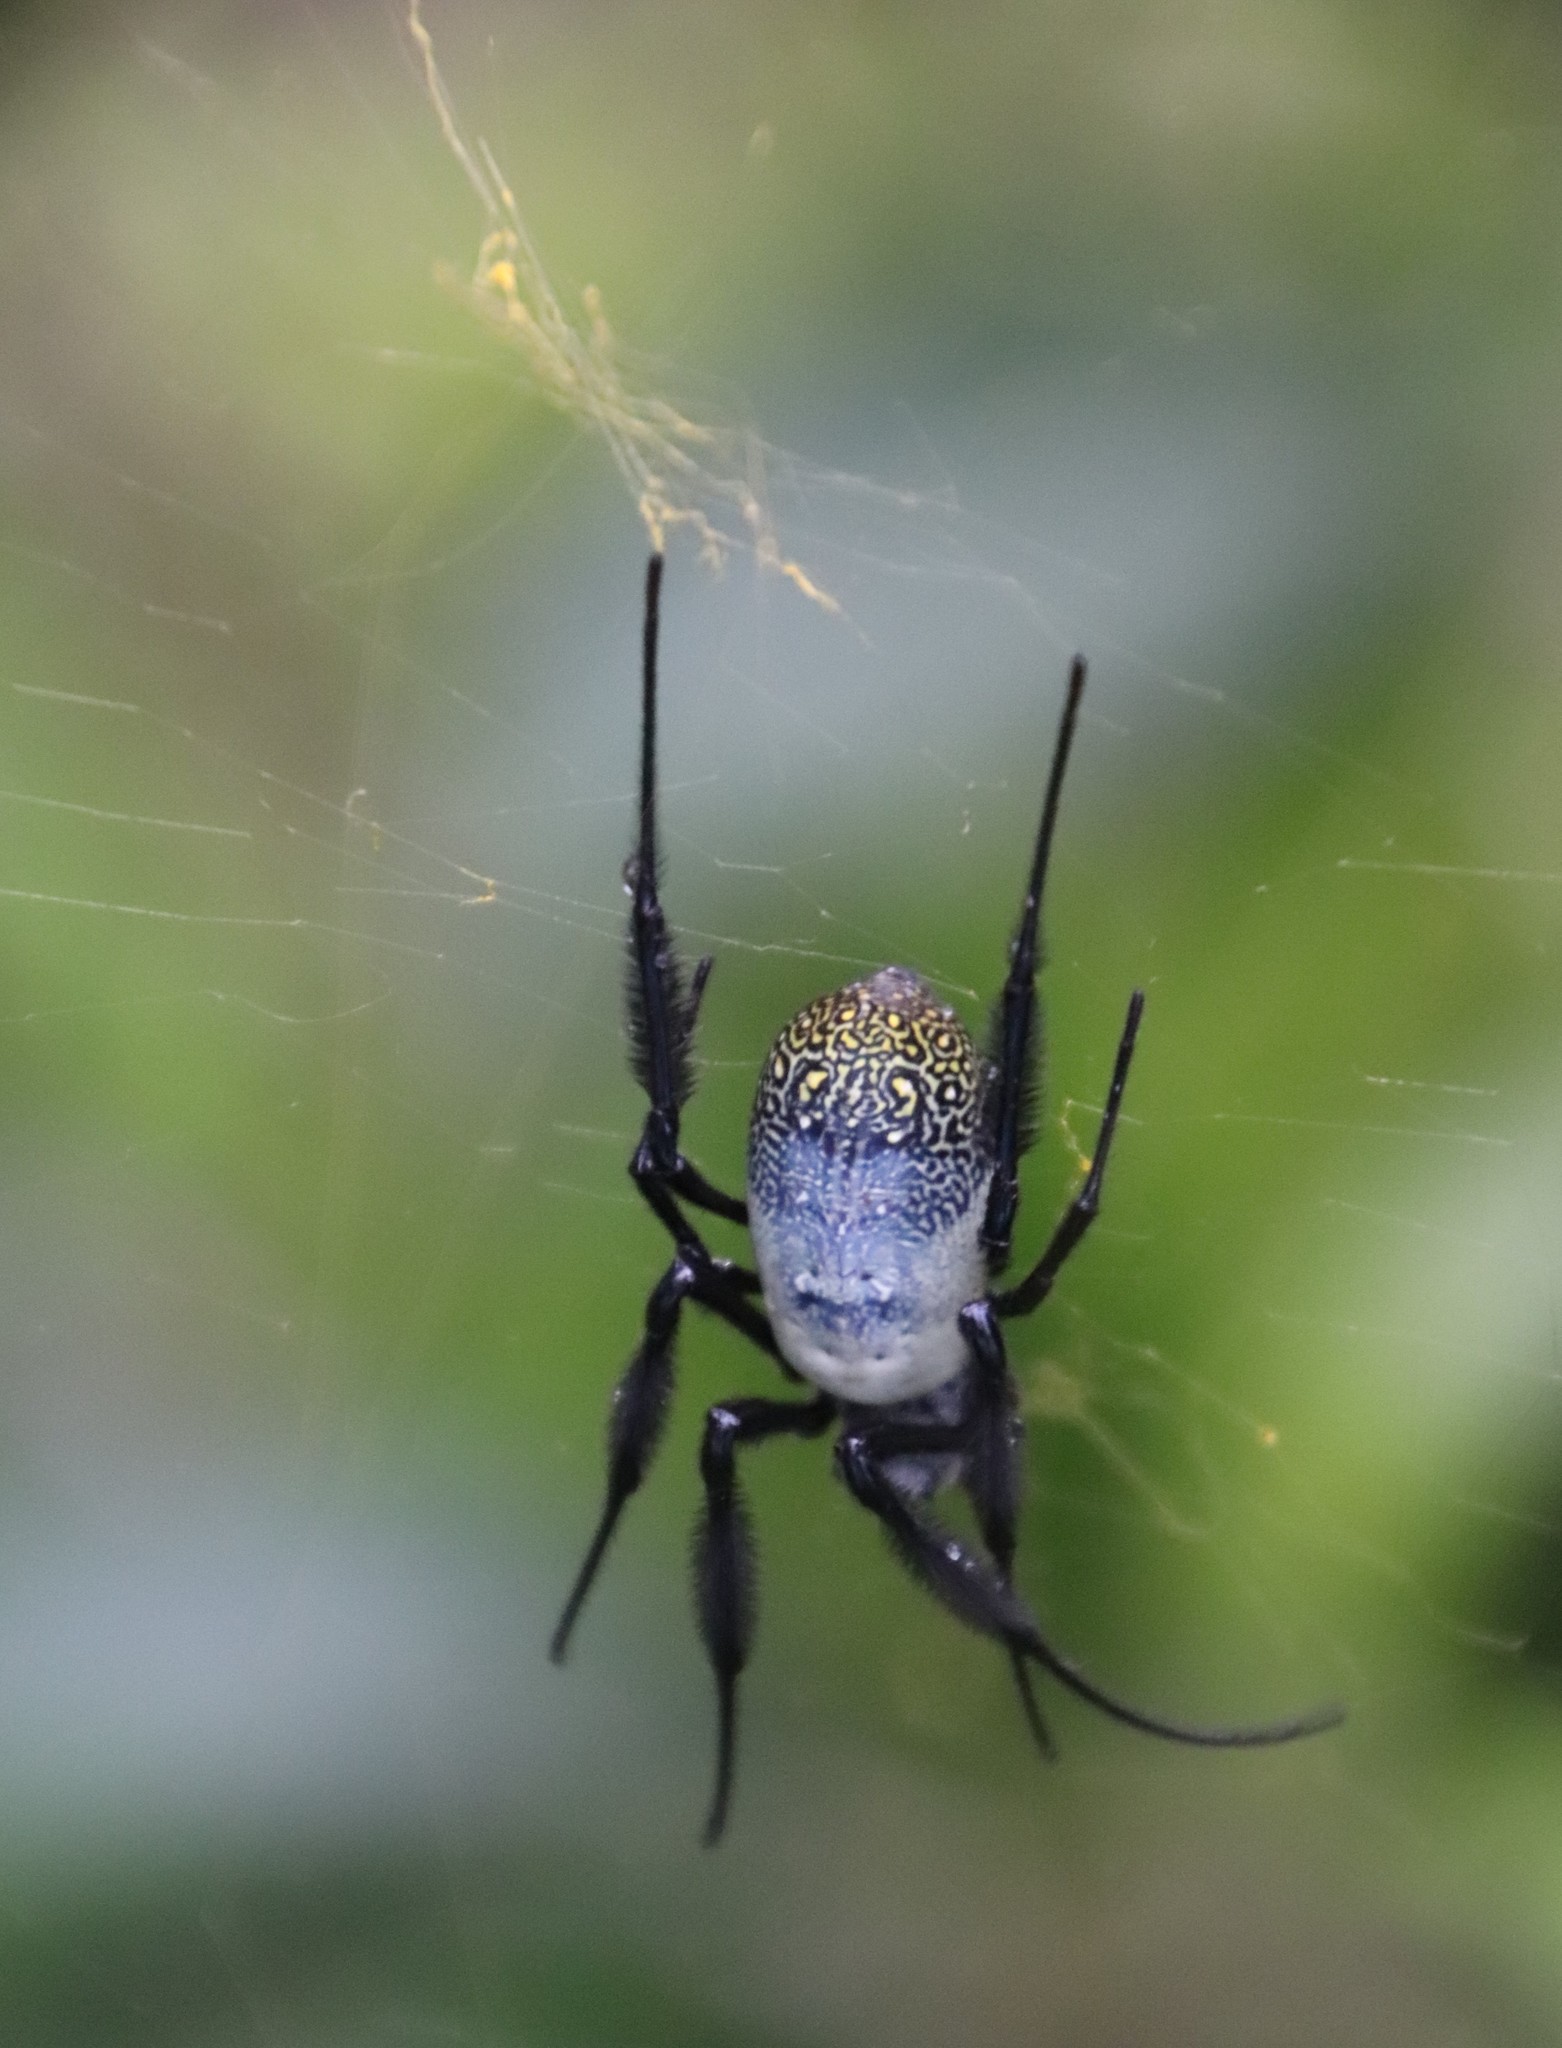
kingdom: Animalia
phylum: Arthropoda
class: Arachnida
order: Araneae
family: Araneidae
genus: Trichonephila
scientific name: Trichonephila fenestrata
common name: Hairy golden orb weaver
